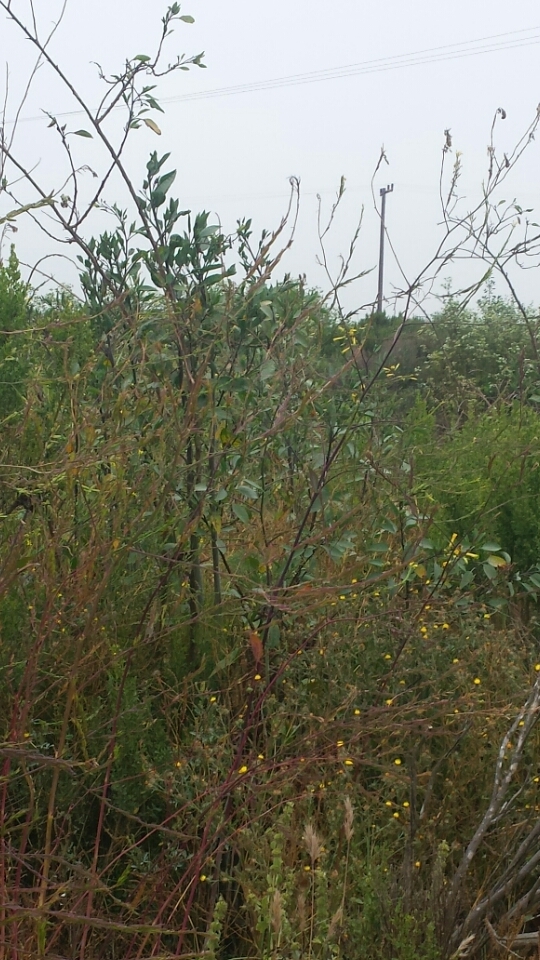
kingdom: Plantae
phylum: Tracheophyta
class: Magnoliopsida
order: Solanales
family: Solanaceae
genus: Nicotiana
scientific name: Nicotiana glauca
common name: Tree tobacco
